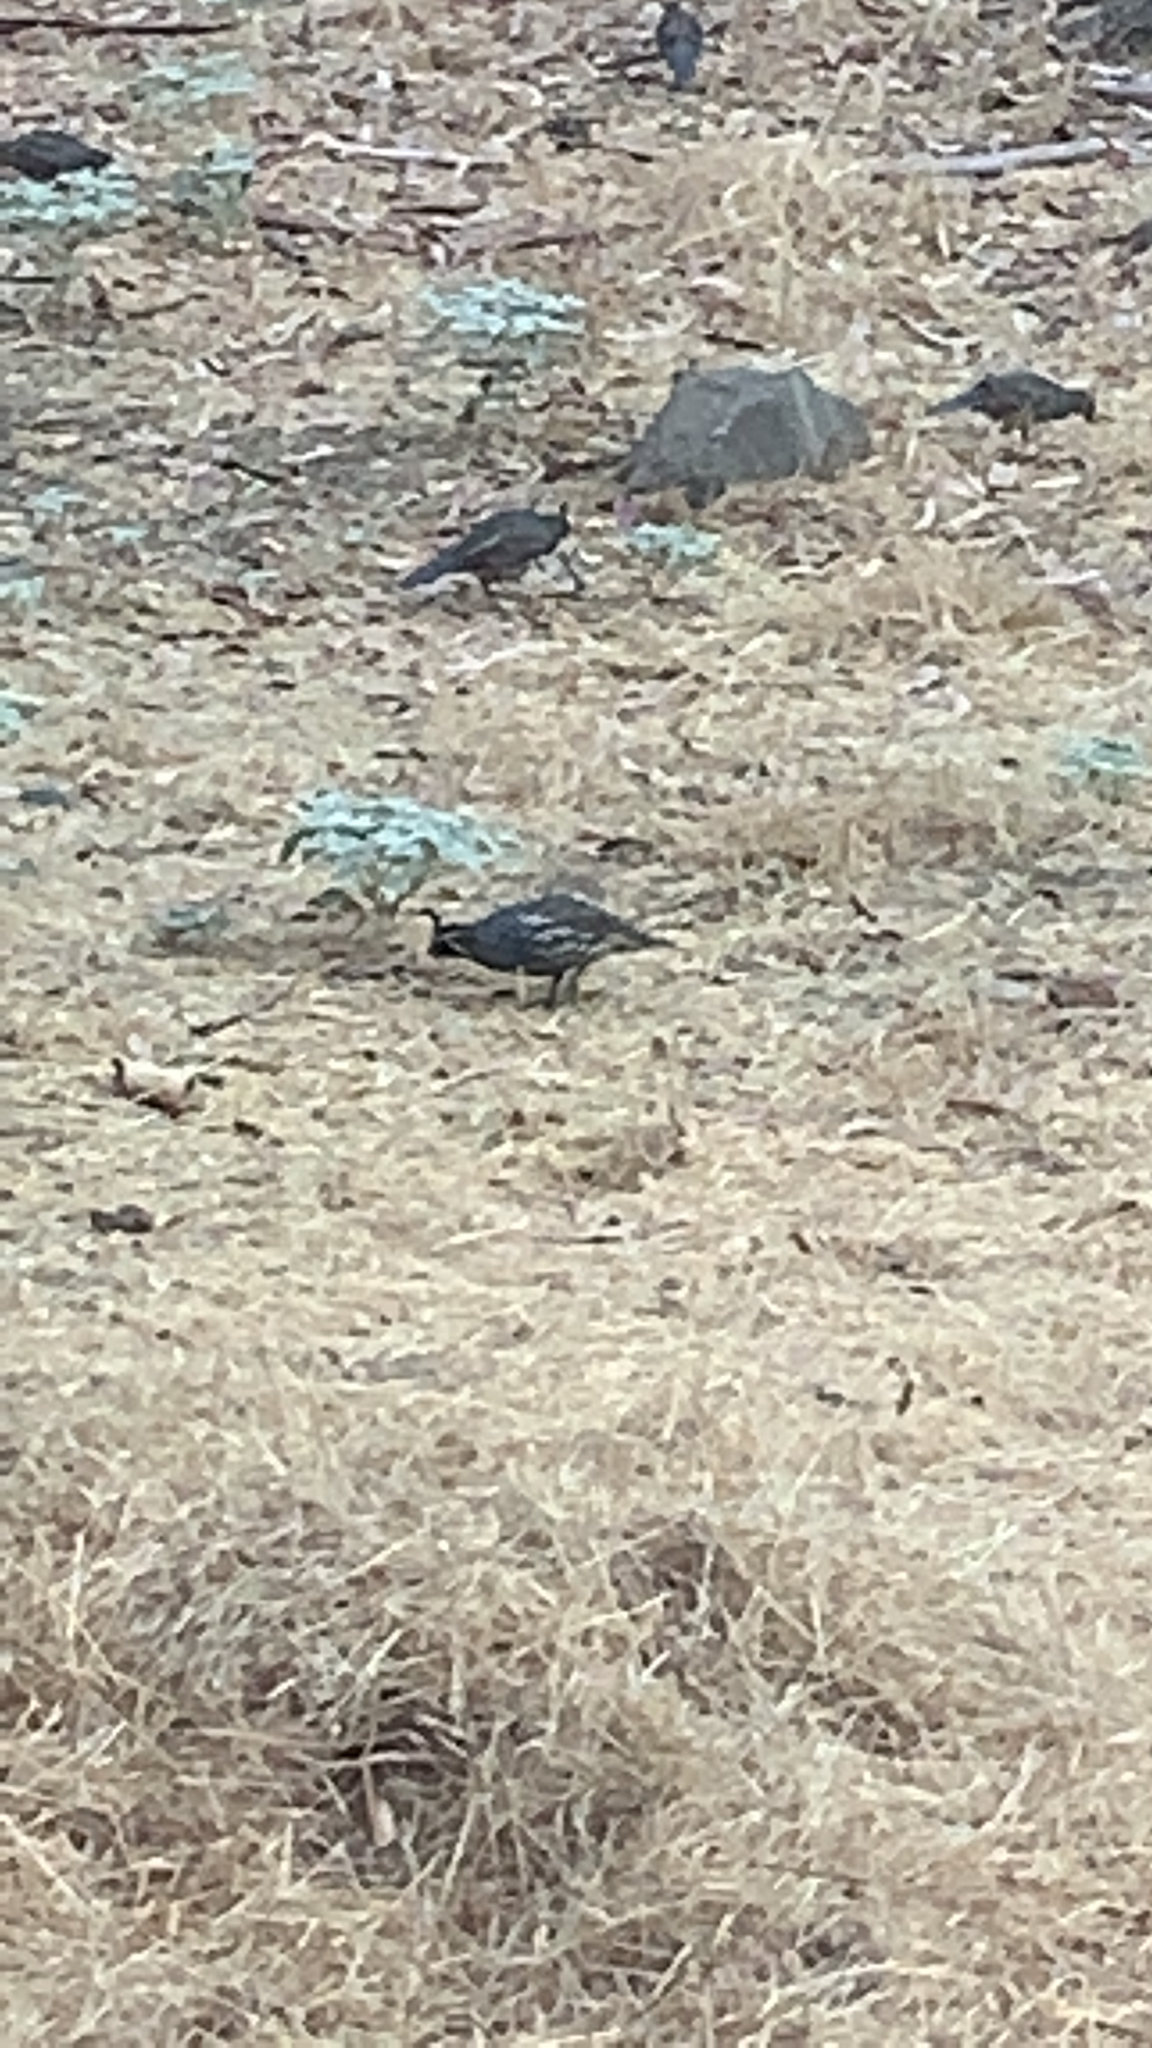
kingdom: Animalia
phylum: Chordata
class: Aves
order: Galliformes
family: Odontophoridae
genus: Callipepla
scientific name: Callipepla californica
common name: California quail
